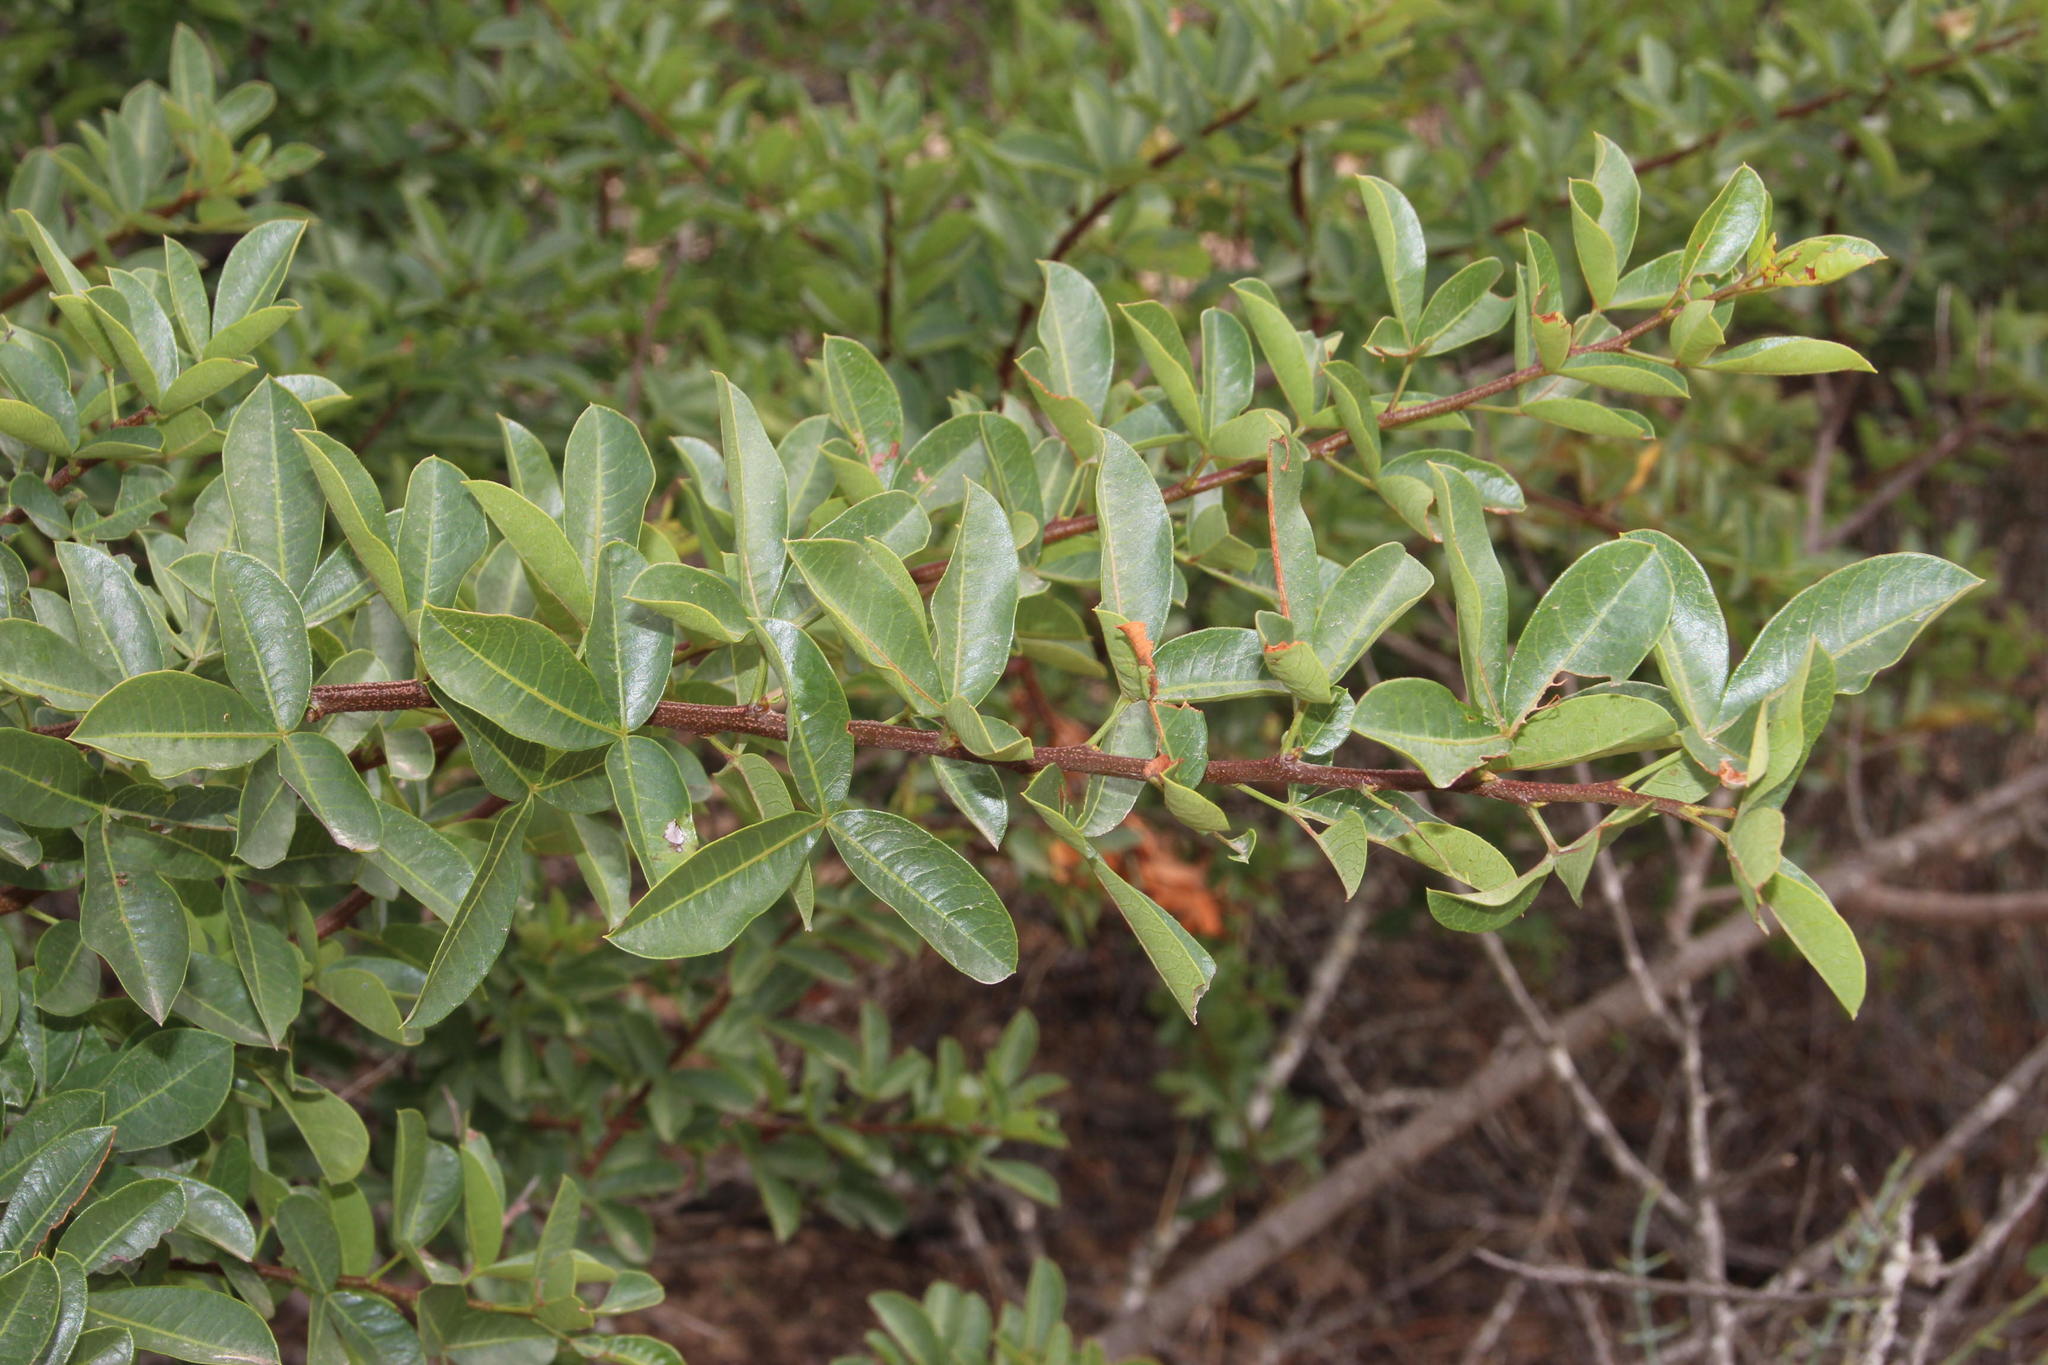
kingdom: Plantae
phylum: Tracheophyta
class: Magnoliopsida
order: Sapindales
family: Anacardiaceae
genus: Searsia
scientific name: Searsia laevigata
